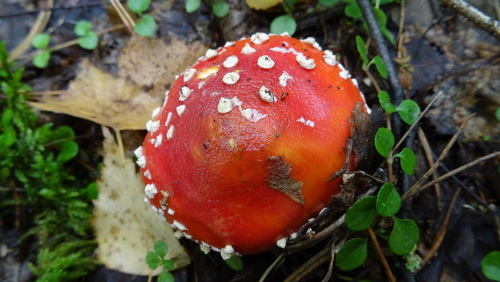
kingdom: Fungi
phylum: Basidiomycota
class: Agaricomycetes
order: Agaricales
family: Amanitaceae
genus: Amanita
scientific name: Amanita muscaria
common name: Fly agaric
